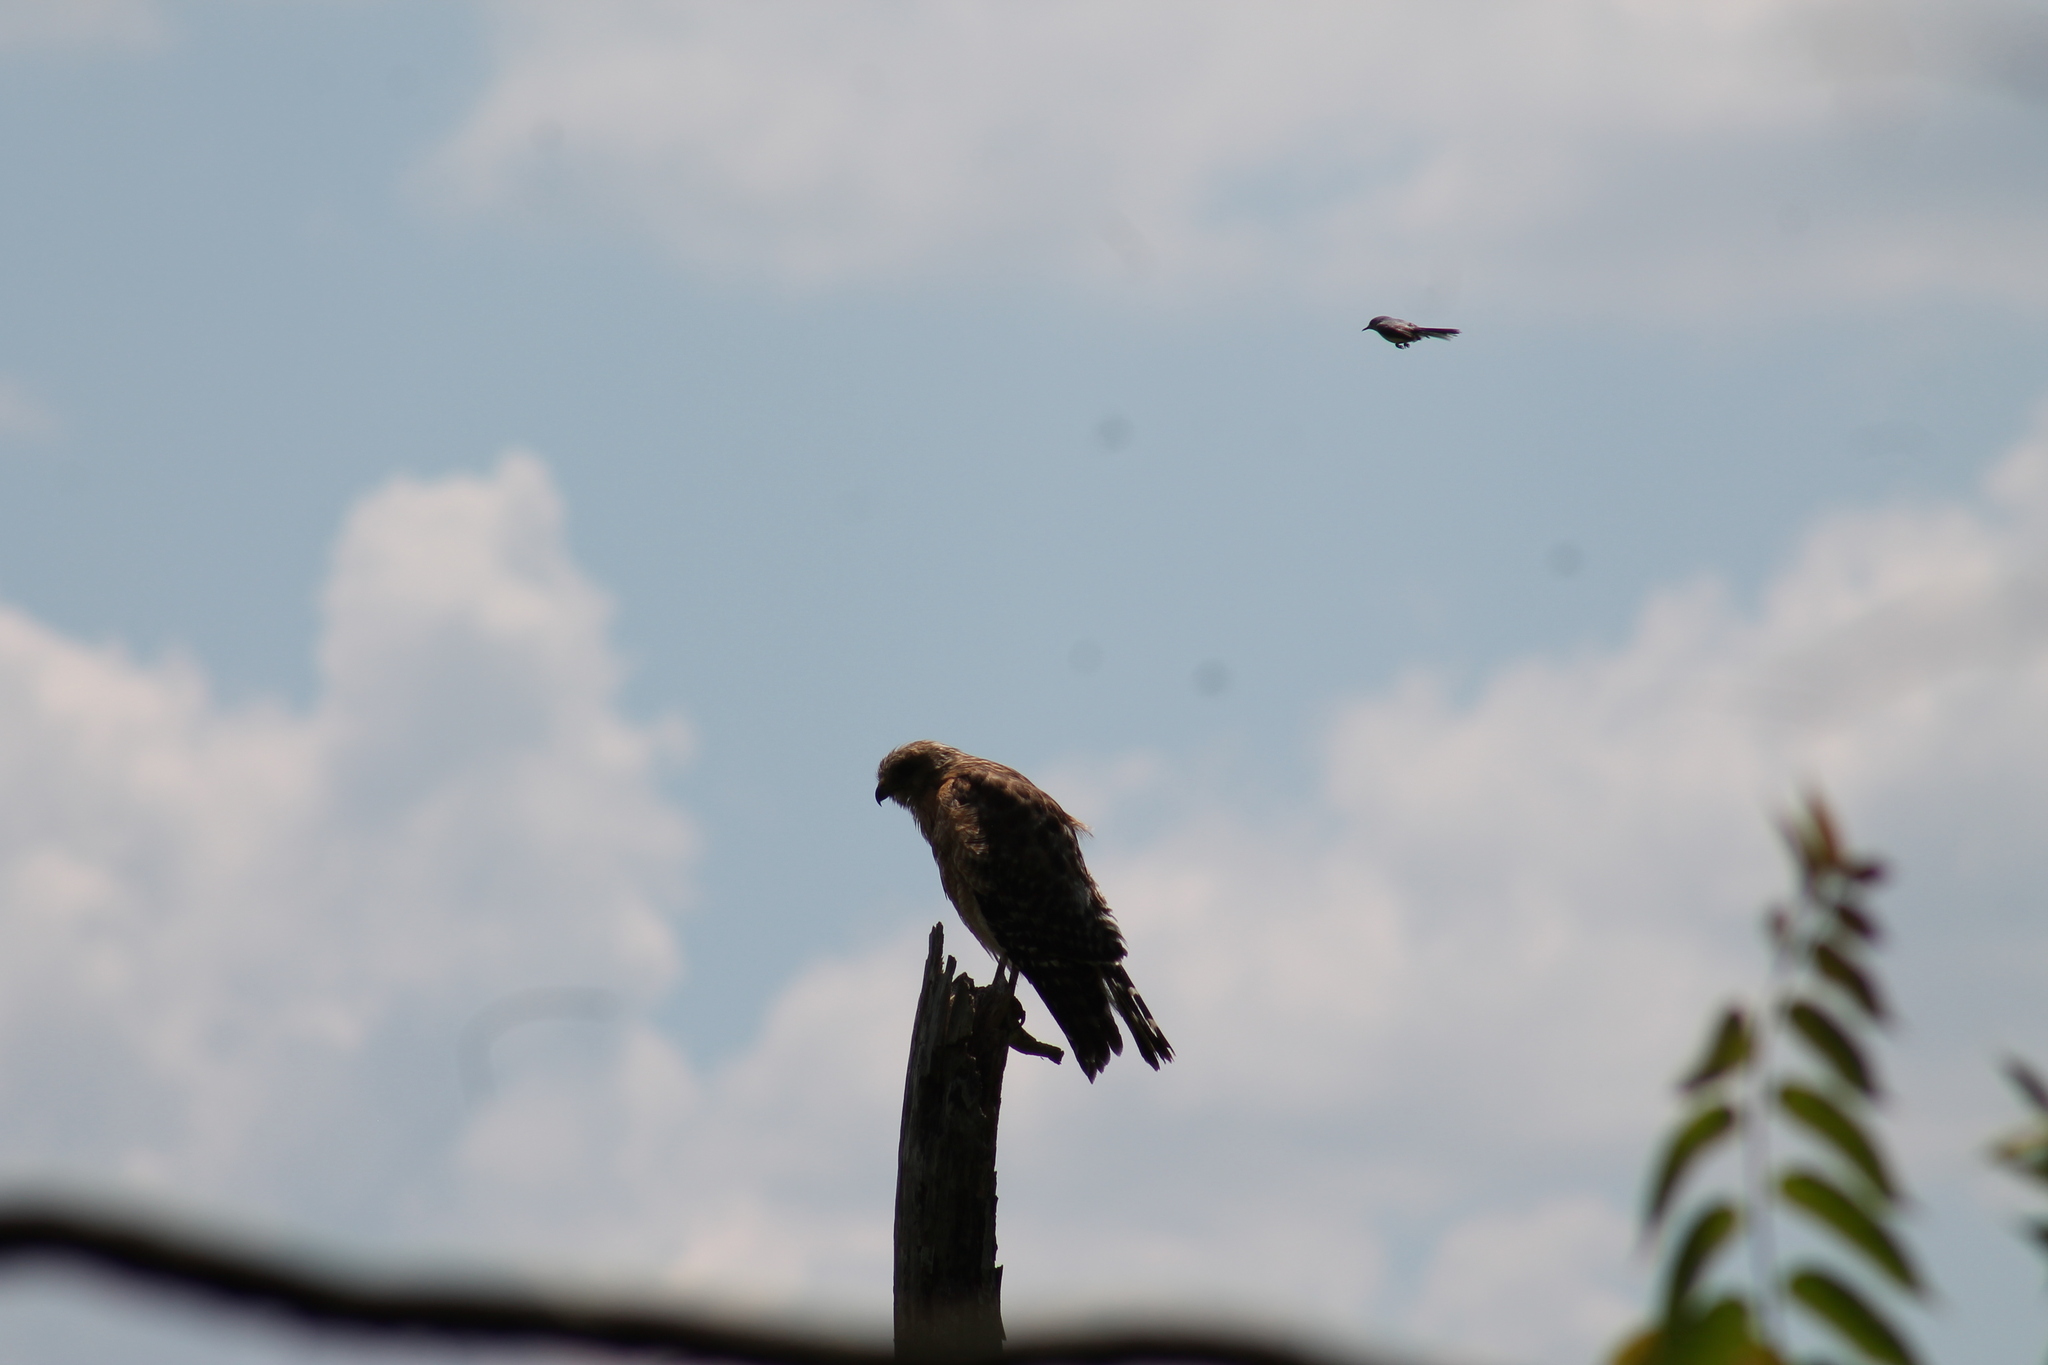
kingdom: Animalia
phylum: Chordata
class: Aves
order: Accipitriformes
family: Accipitridae
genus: Buteo
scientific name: Buteo lineatus
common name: Red-shouldered hawk
